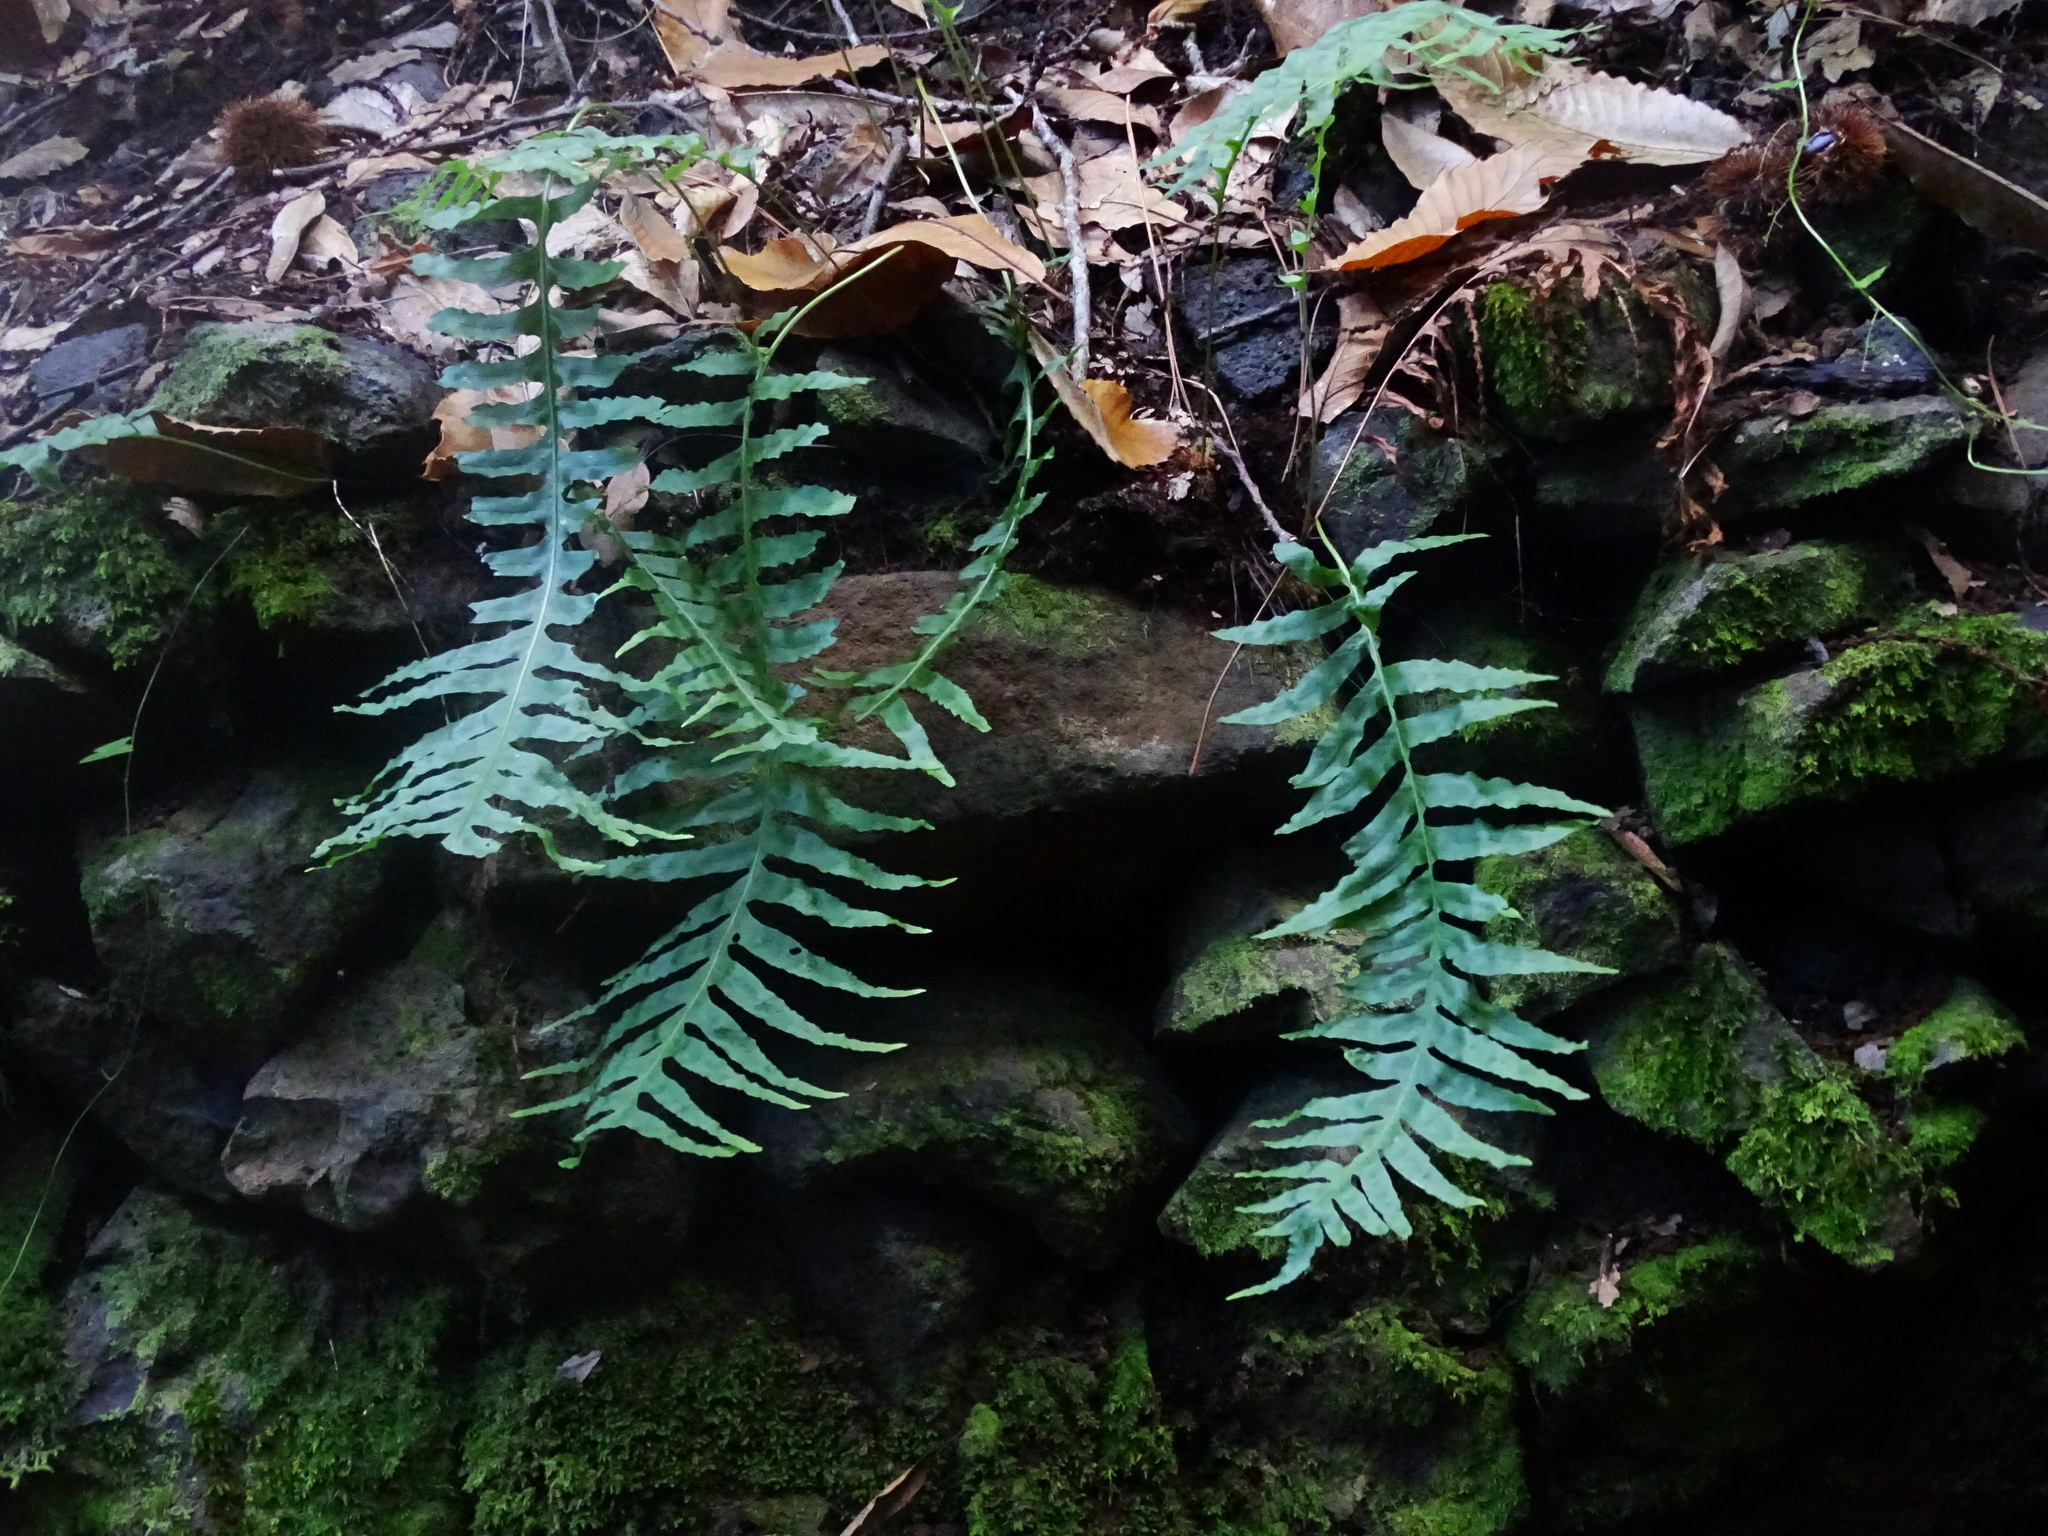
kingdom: Plantae
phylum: Tracheophyta
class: Polypodiopsida
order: Polypodiales
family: Polypodiaceae
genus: Polypodium
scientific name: Polypodium macaronesicum
